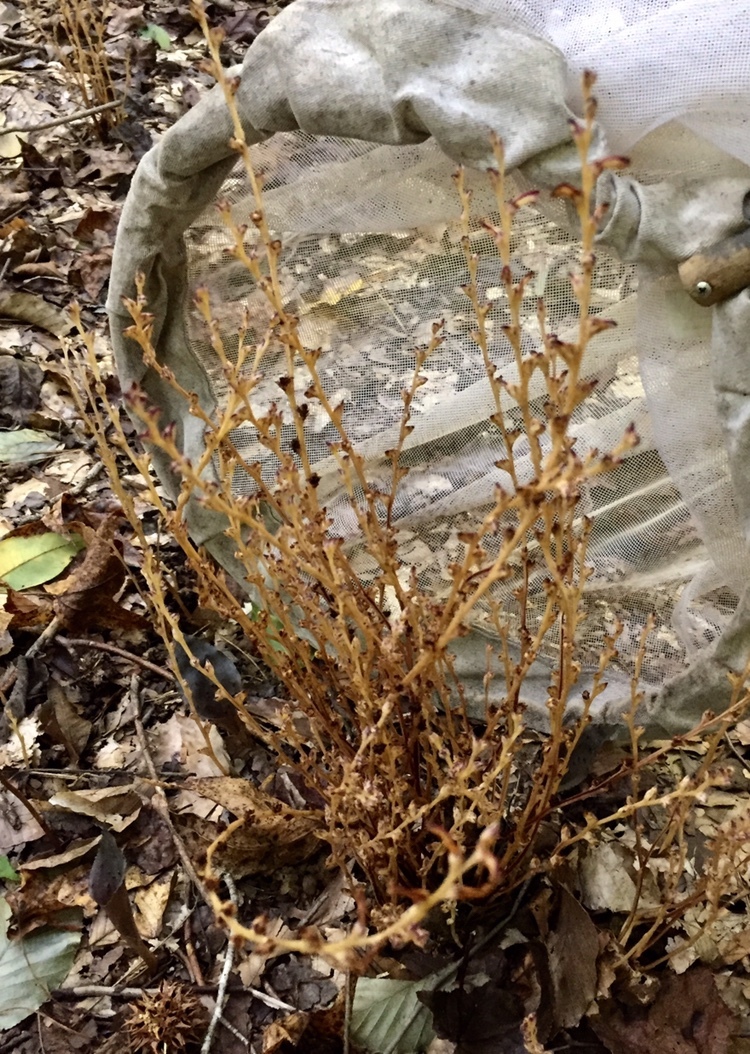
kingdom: Plantae
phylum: Tracheophyta
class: Magnoliopsida
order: Lamiales
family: Orobanchaceae
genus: Epifagus
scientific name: Epifagus virginiana
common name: Beechdrops
